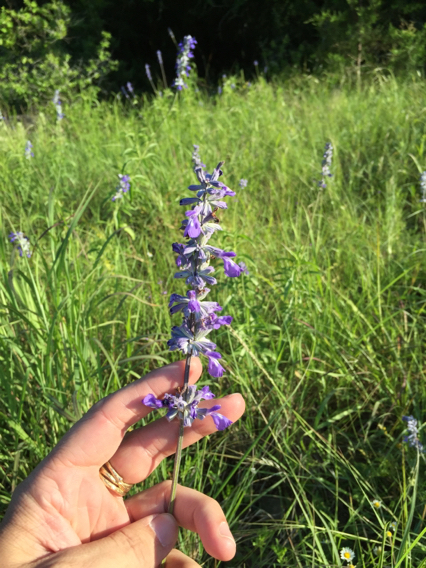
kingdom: Plantae
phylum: Tracheophyta
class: Magnoliopsida
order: Lamiales
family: Lamiaceae
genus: Salvia
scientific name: Salvia farinacea
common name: Mealy sage
